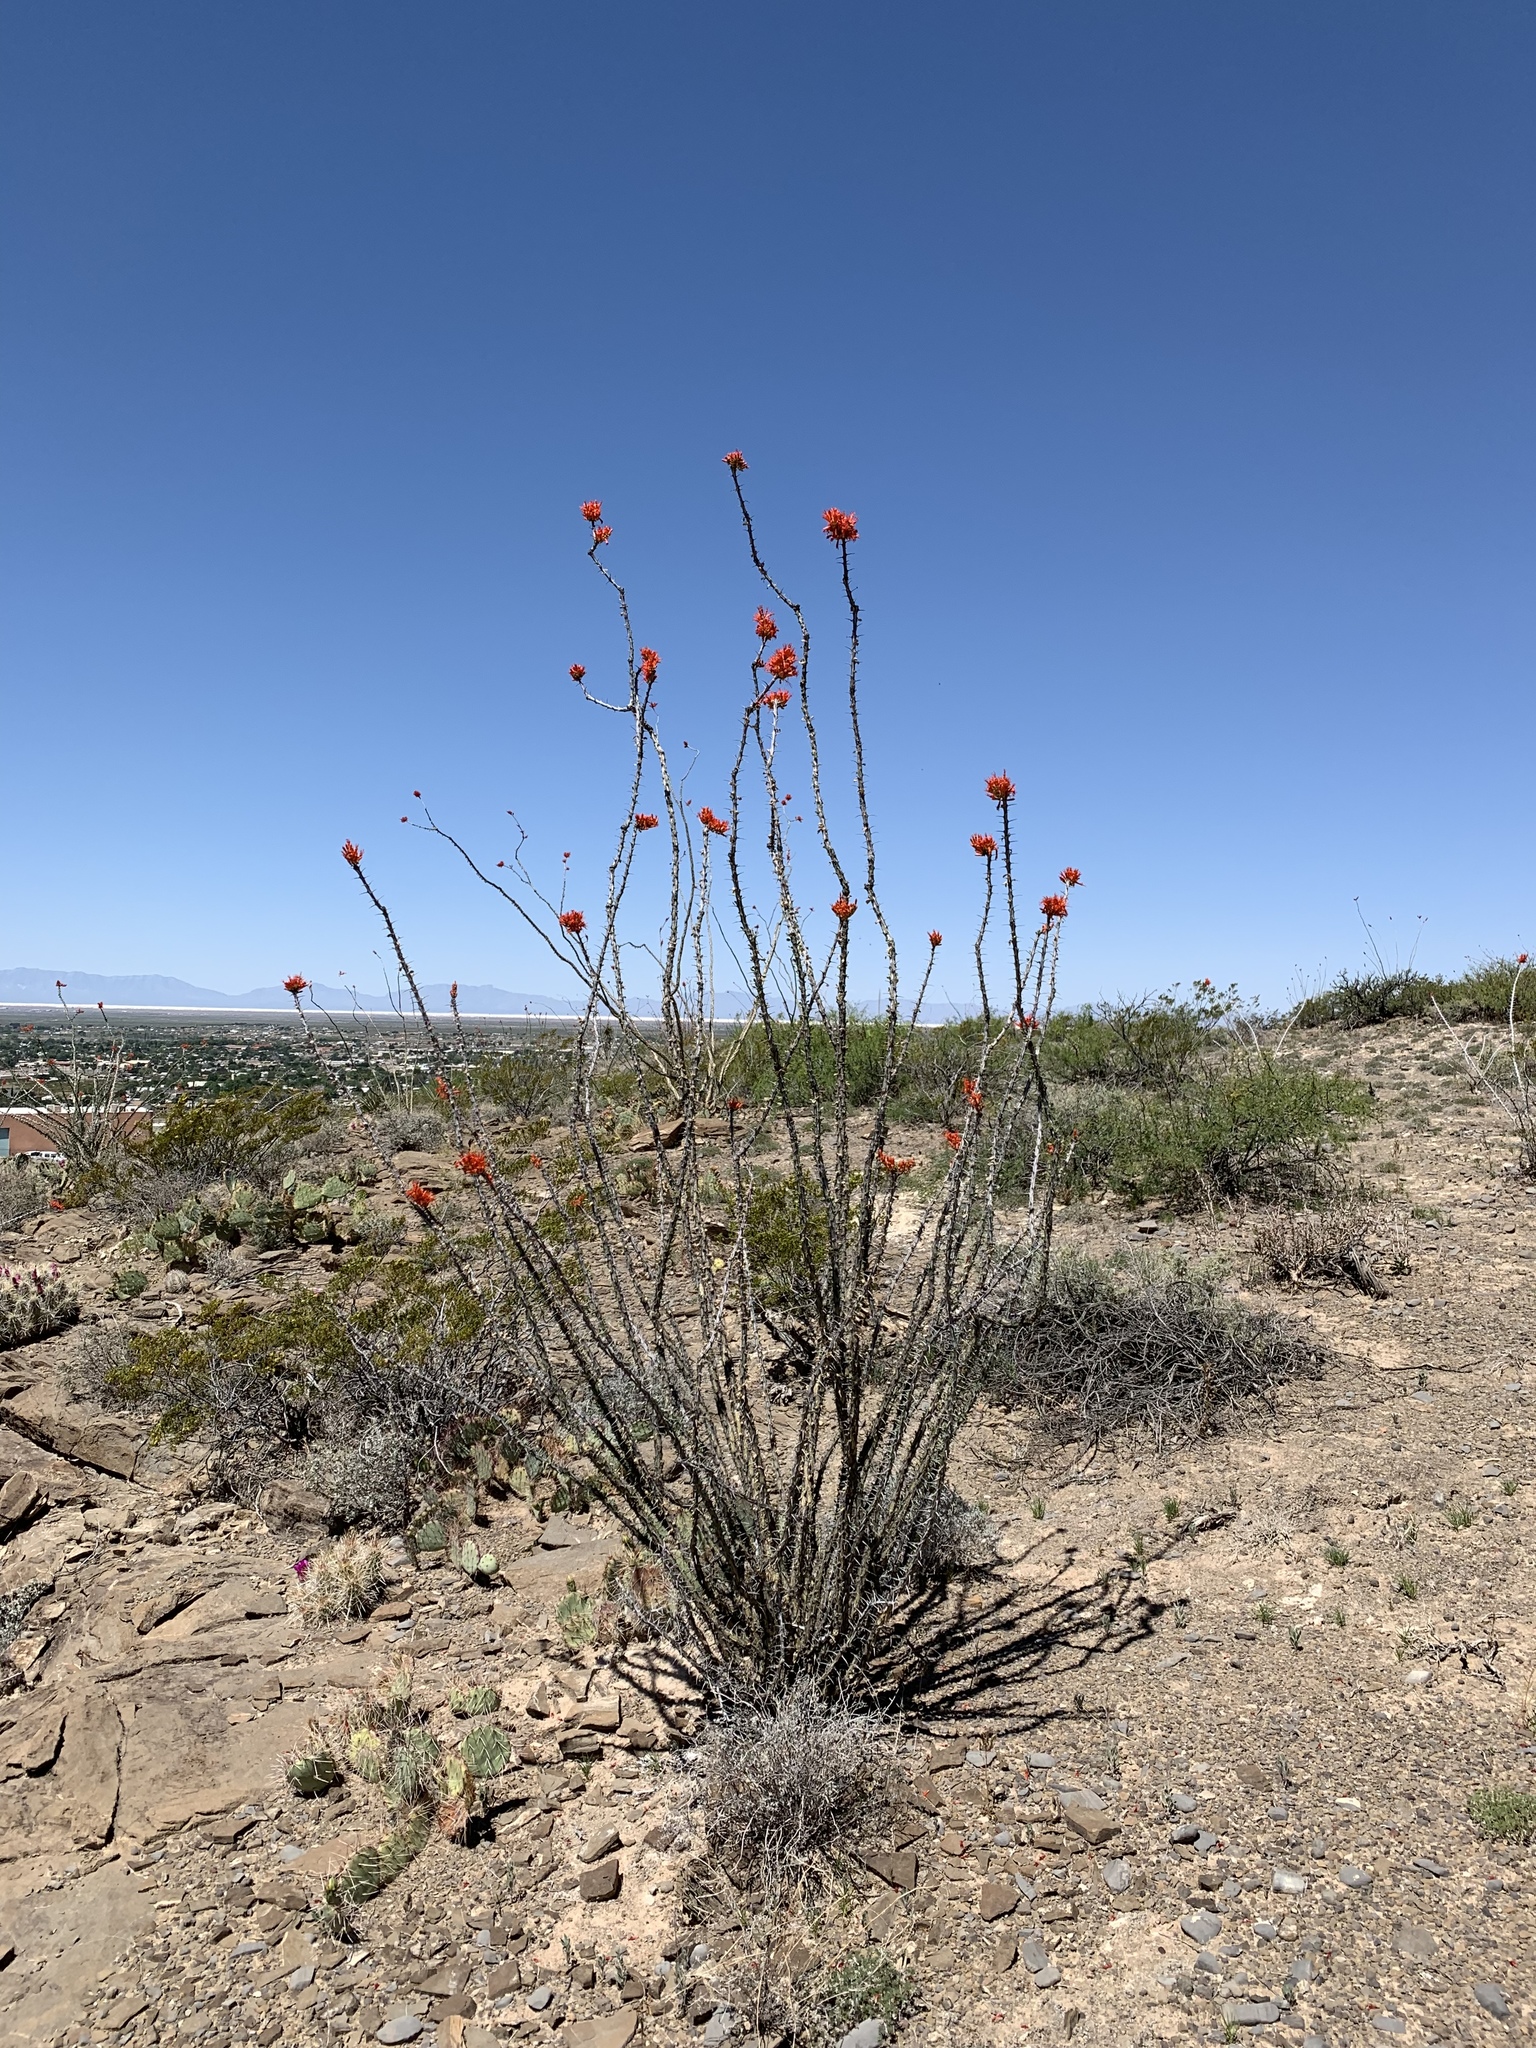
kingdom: Plantae
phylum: Tracheophyta
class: Magnoliopsida
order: Ericales
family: Fouquieriaceae
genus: Fouquieria
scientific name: Fouquieria splendens
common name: Vine-cactus
